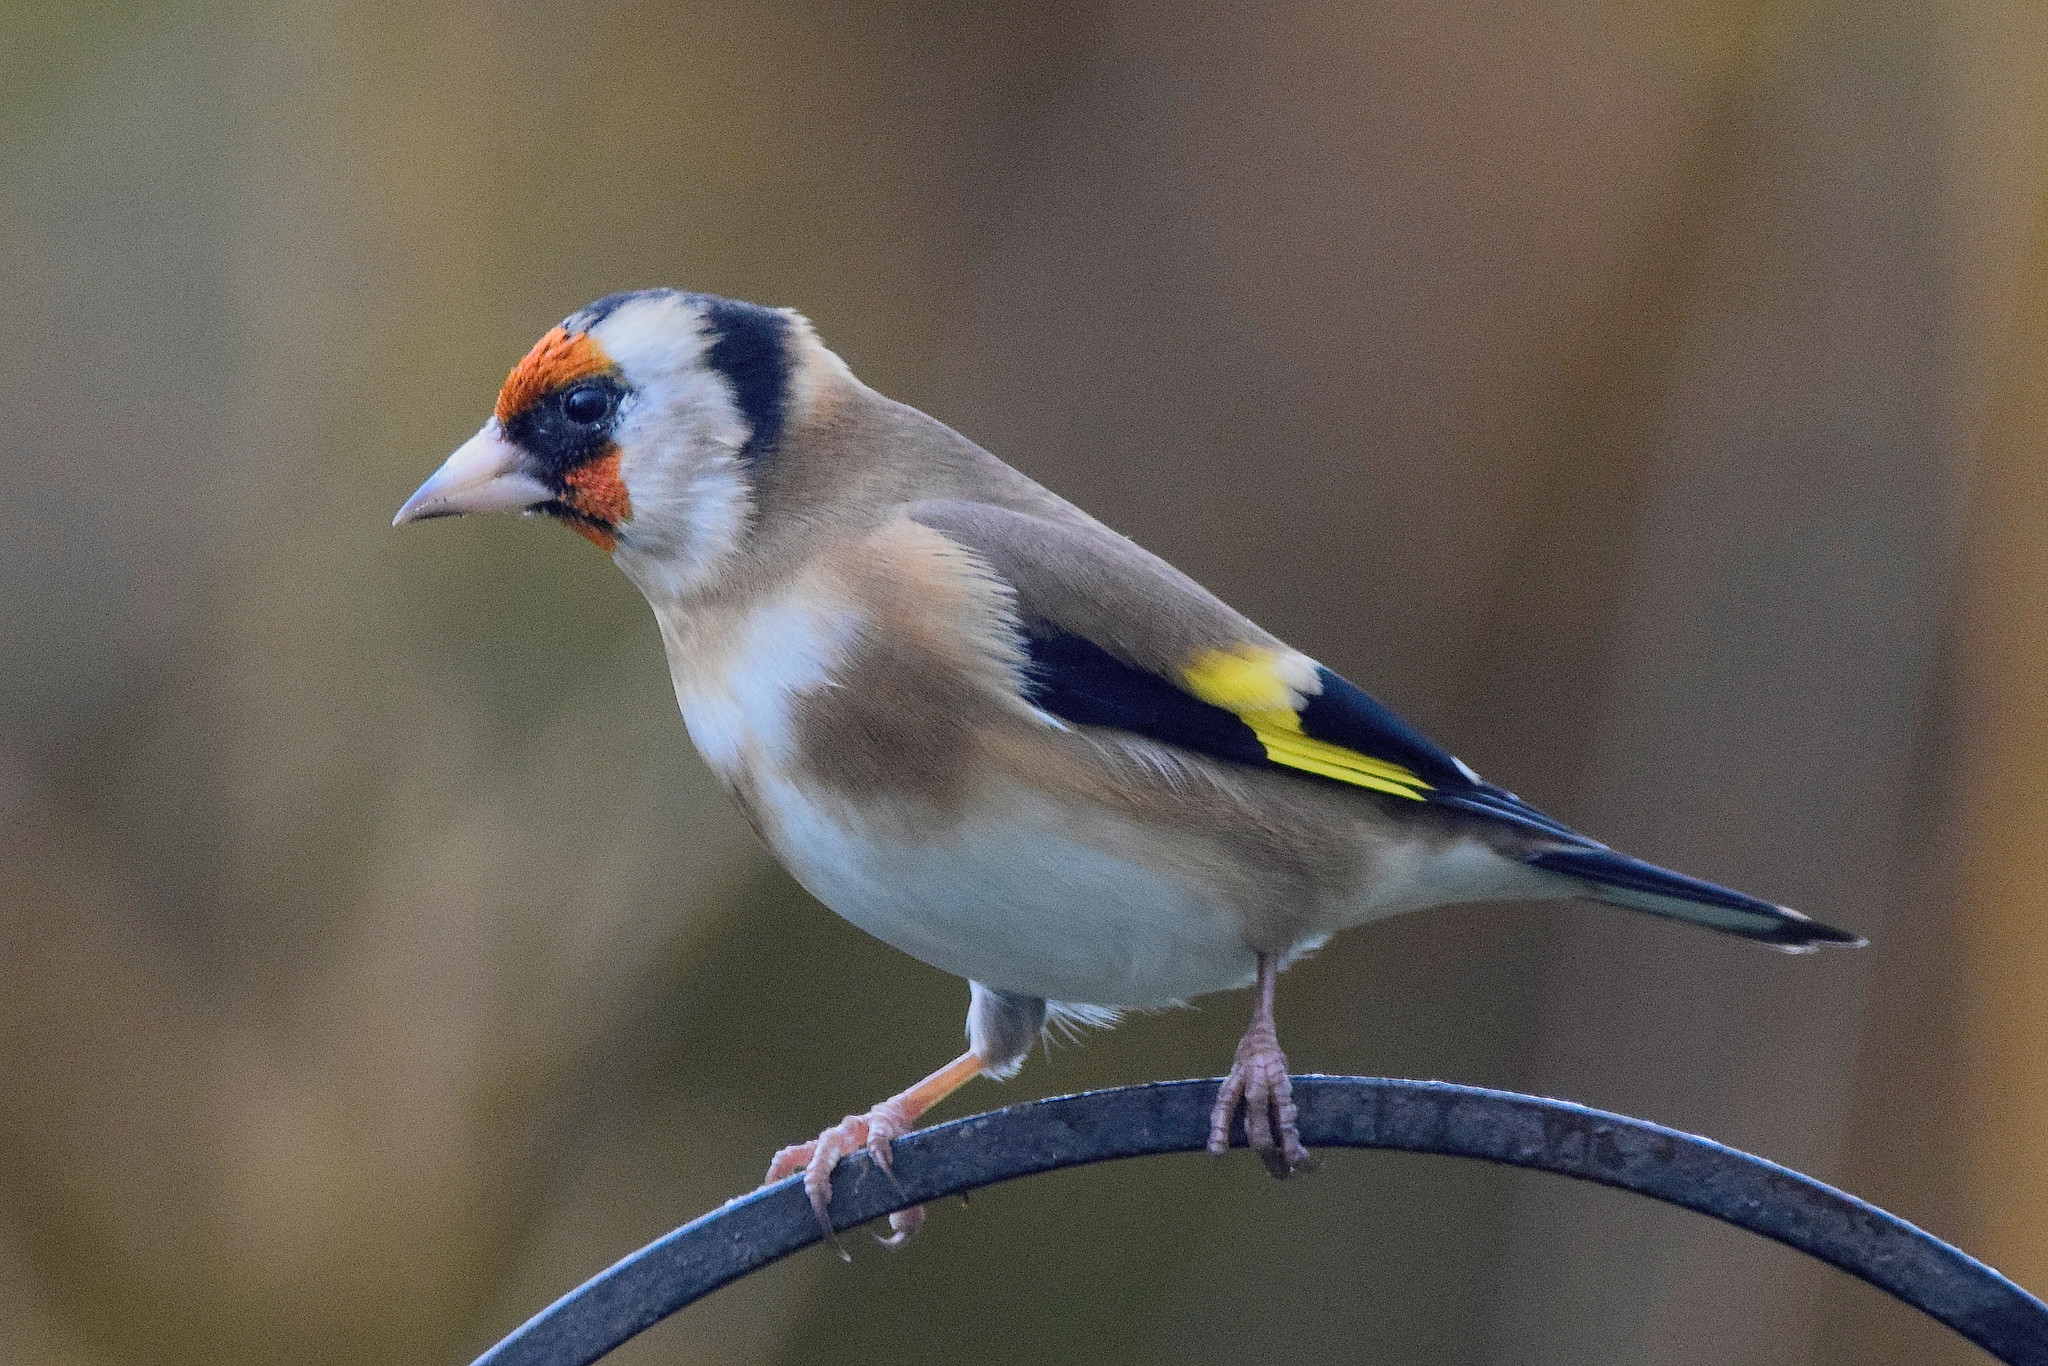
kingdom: Animalia
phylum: Chordata
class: Aves
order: Passeriformes
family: Fringillidae
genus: Carduelis
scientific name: Carduelis carduelis
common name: European goldfinch
